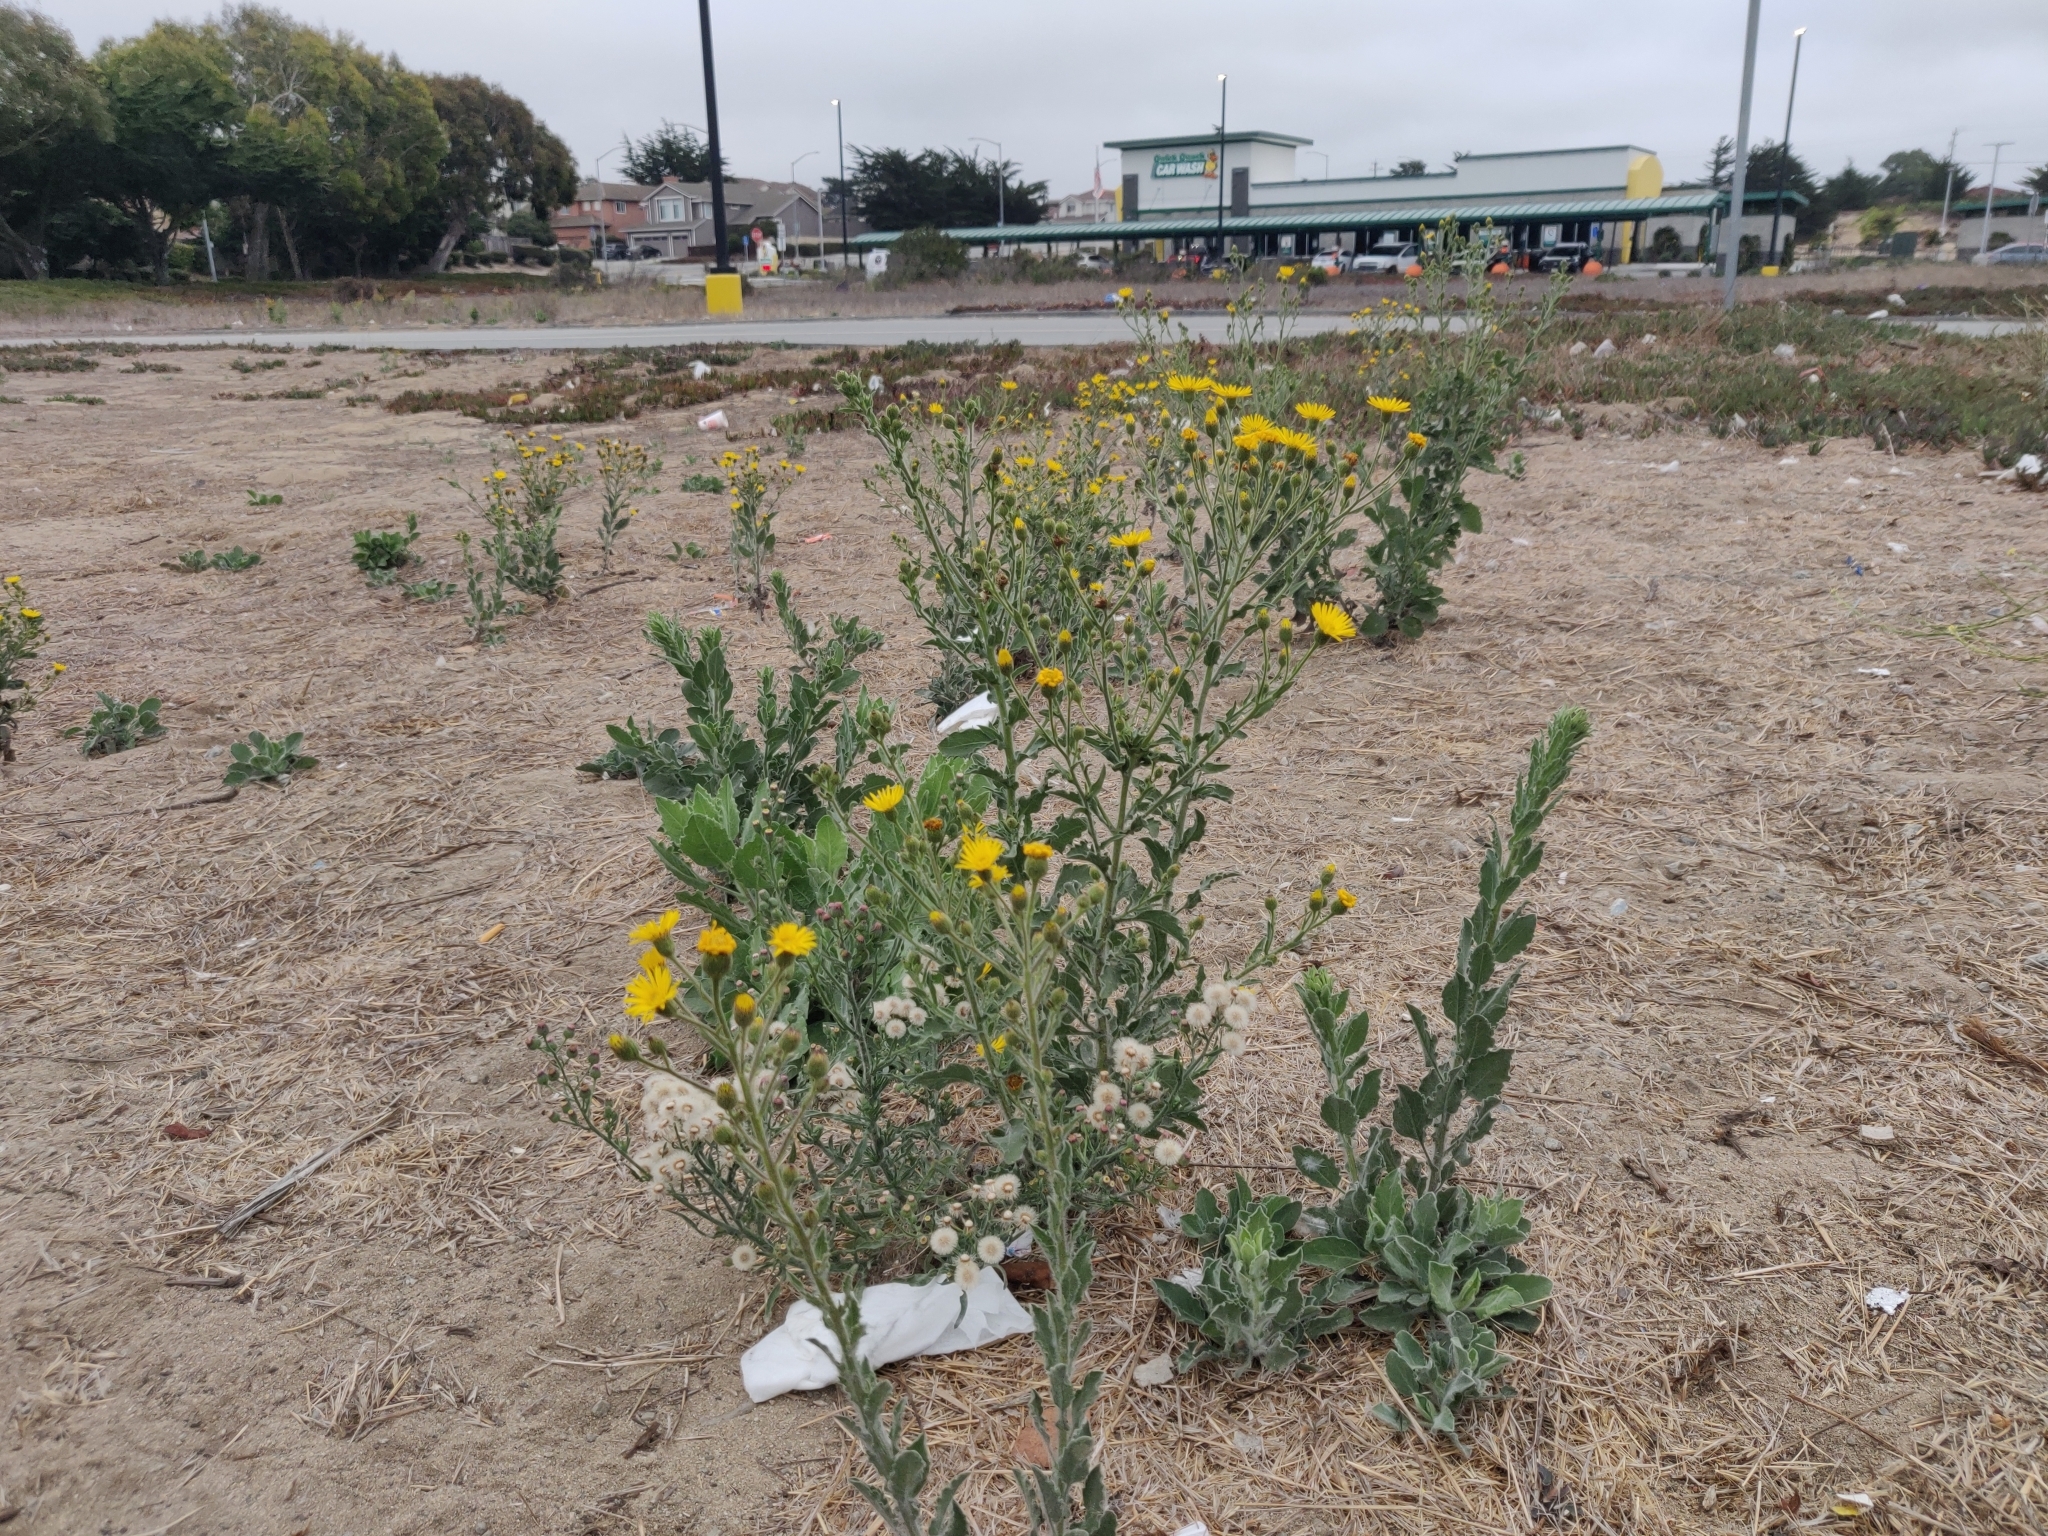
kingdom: Plantae
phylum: Tracheophyta
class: Magnoliopsida
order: Asterales
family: Asteraceae
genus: Heterotheca
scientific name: Heterotheca grandiflora
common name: Telegraphweed
